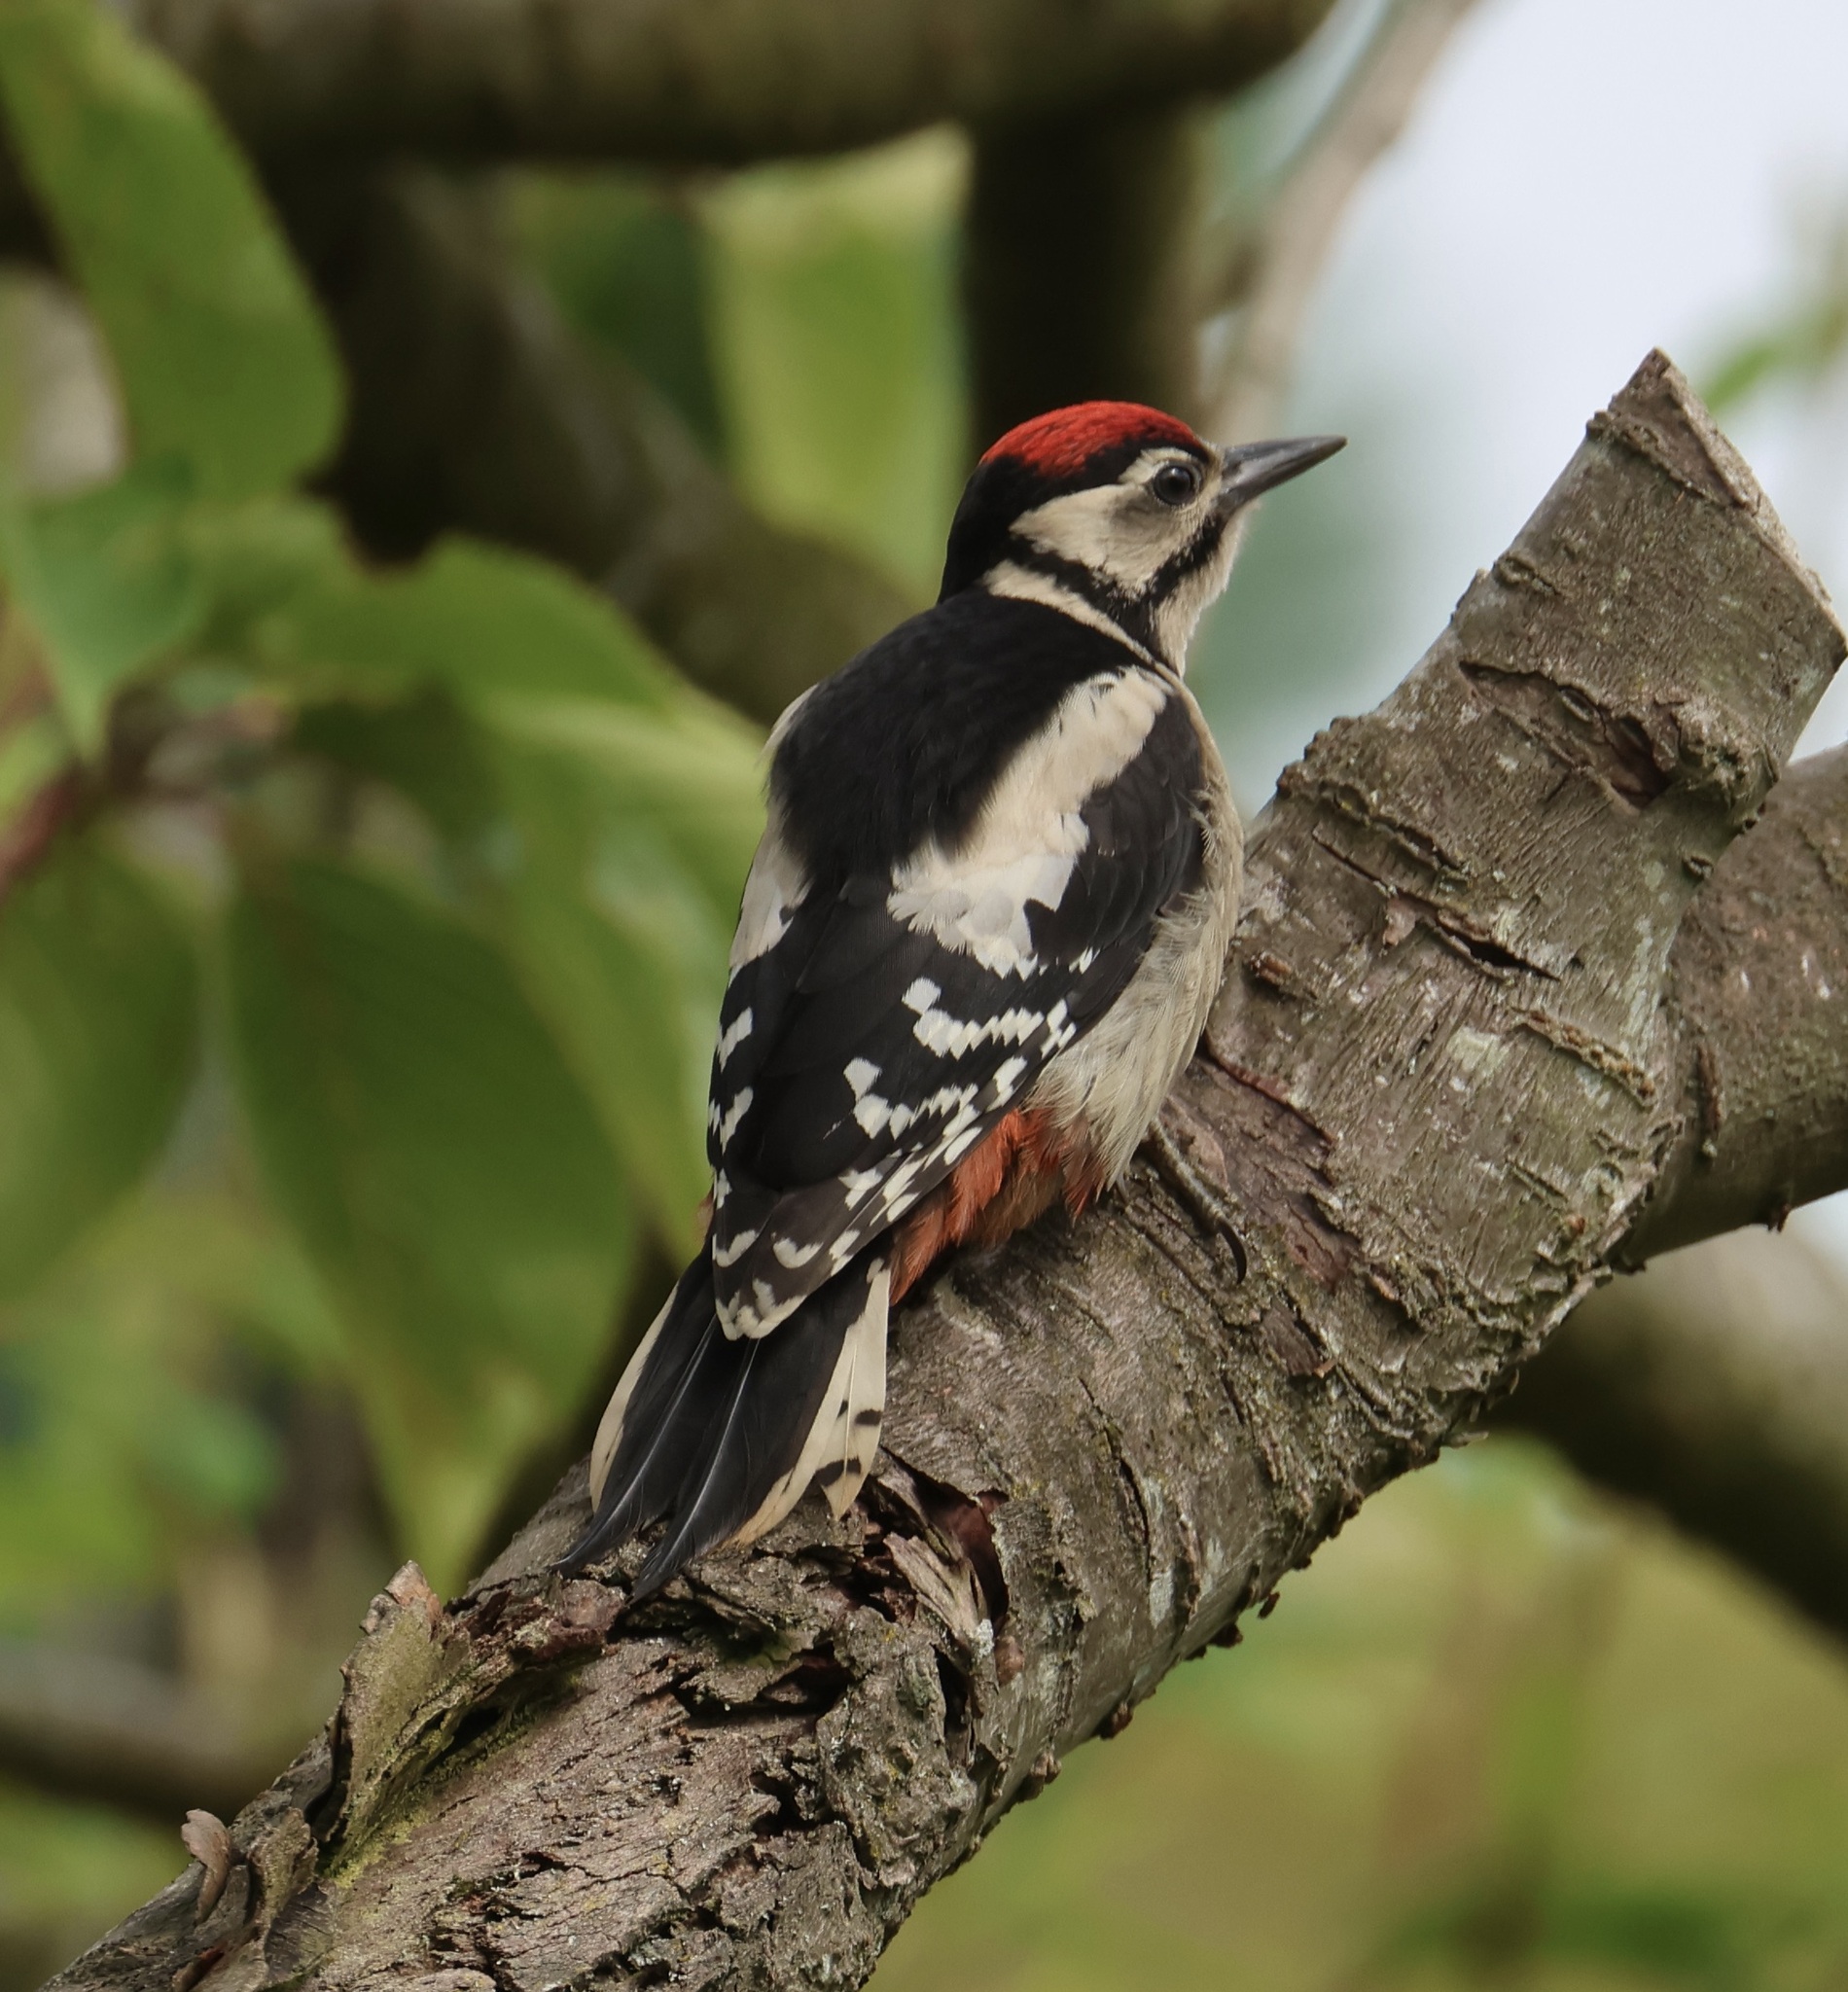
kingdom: Animalia
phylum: Chordata
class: Aves
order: Piciformes
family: Picidae
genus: Dendrocopos
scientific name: Dendrocopos major
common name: Great spotted woodpecker
